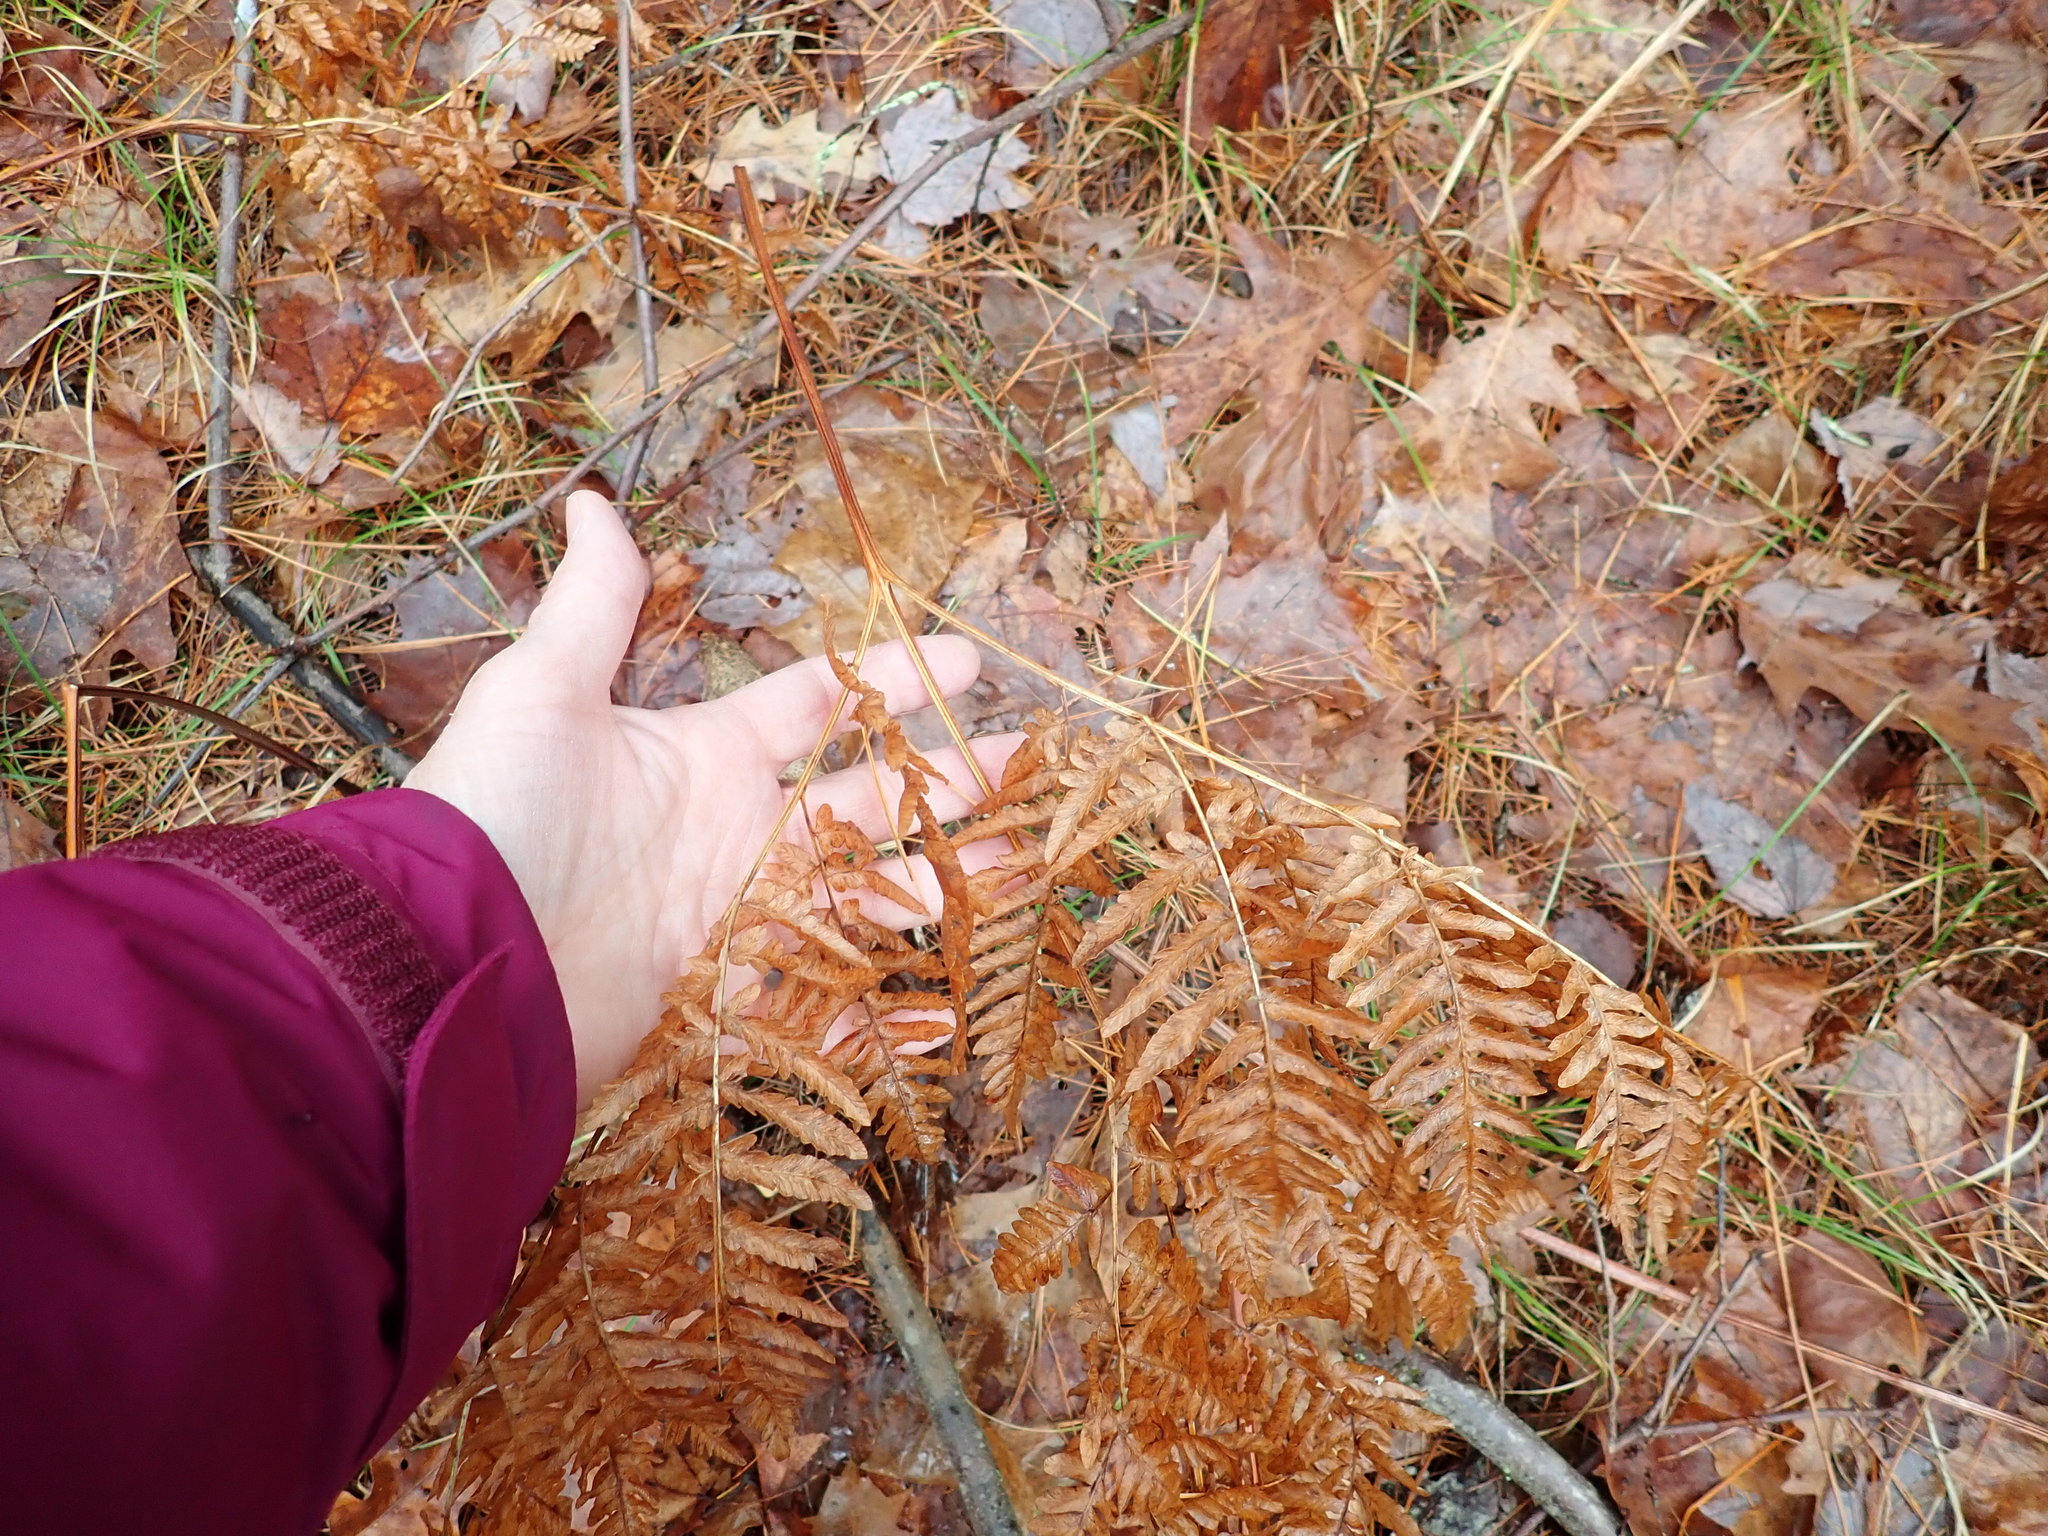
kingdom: Plantae
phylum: Tracheophyta
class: Polypodiopsida
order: Polypodiales
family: Dennstaedtiaceae
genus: Pteridium
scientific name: Pteridium aquilinum
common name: Bracken
